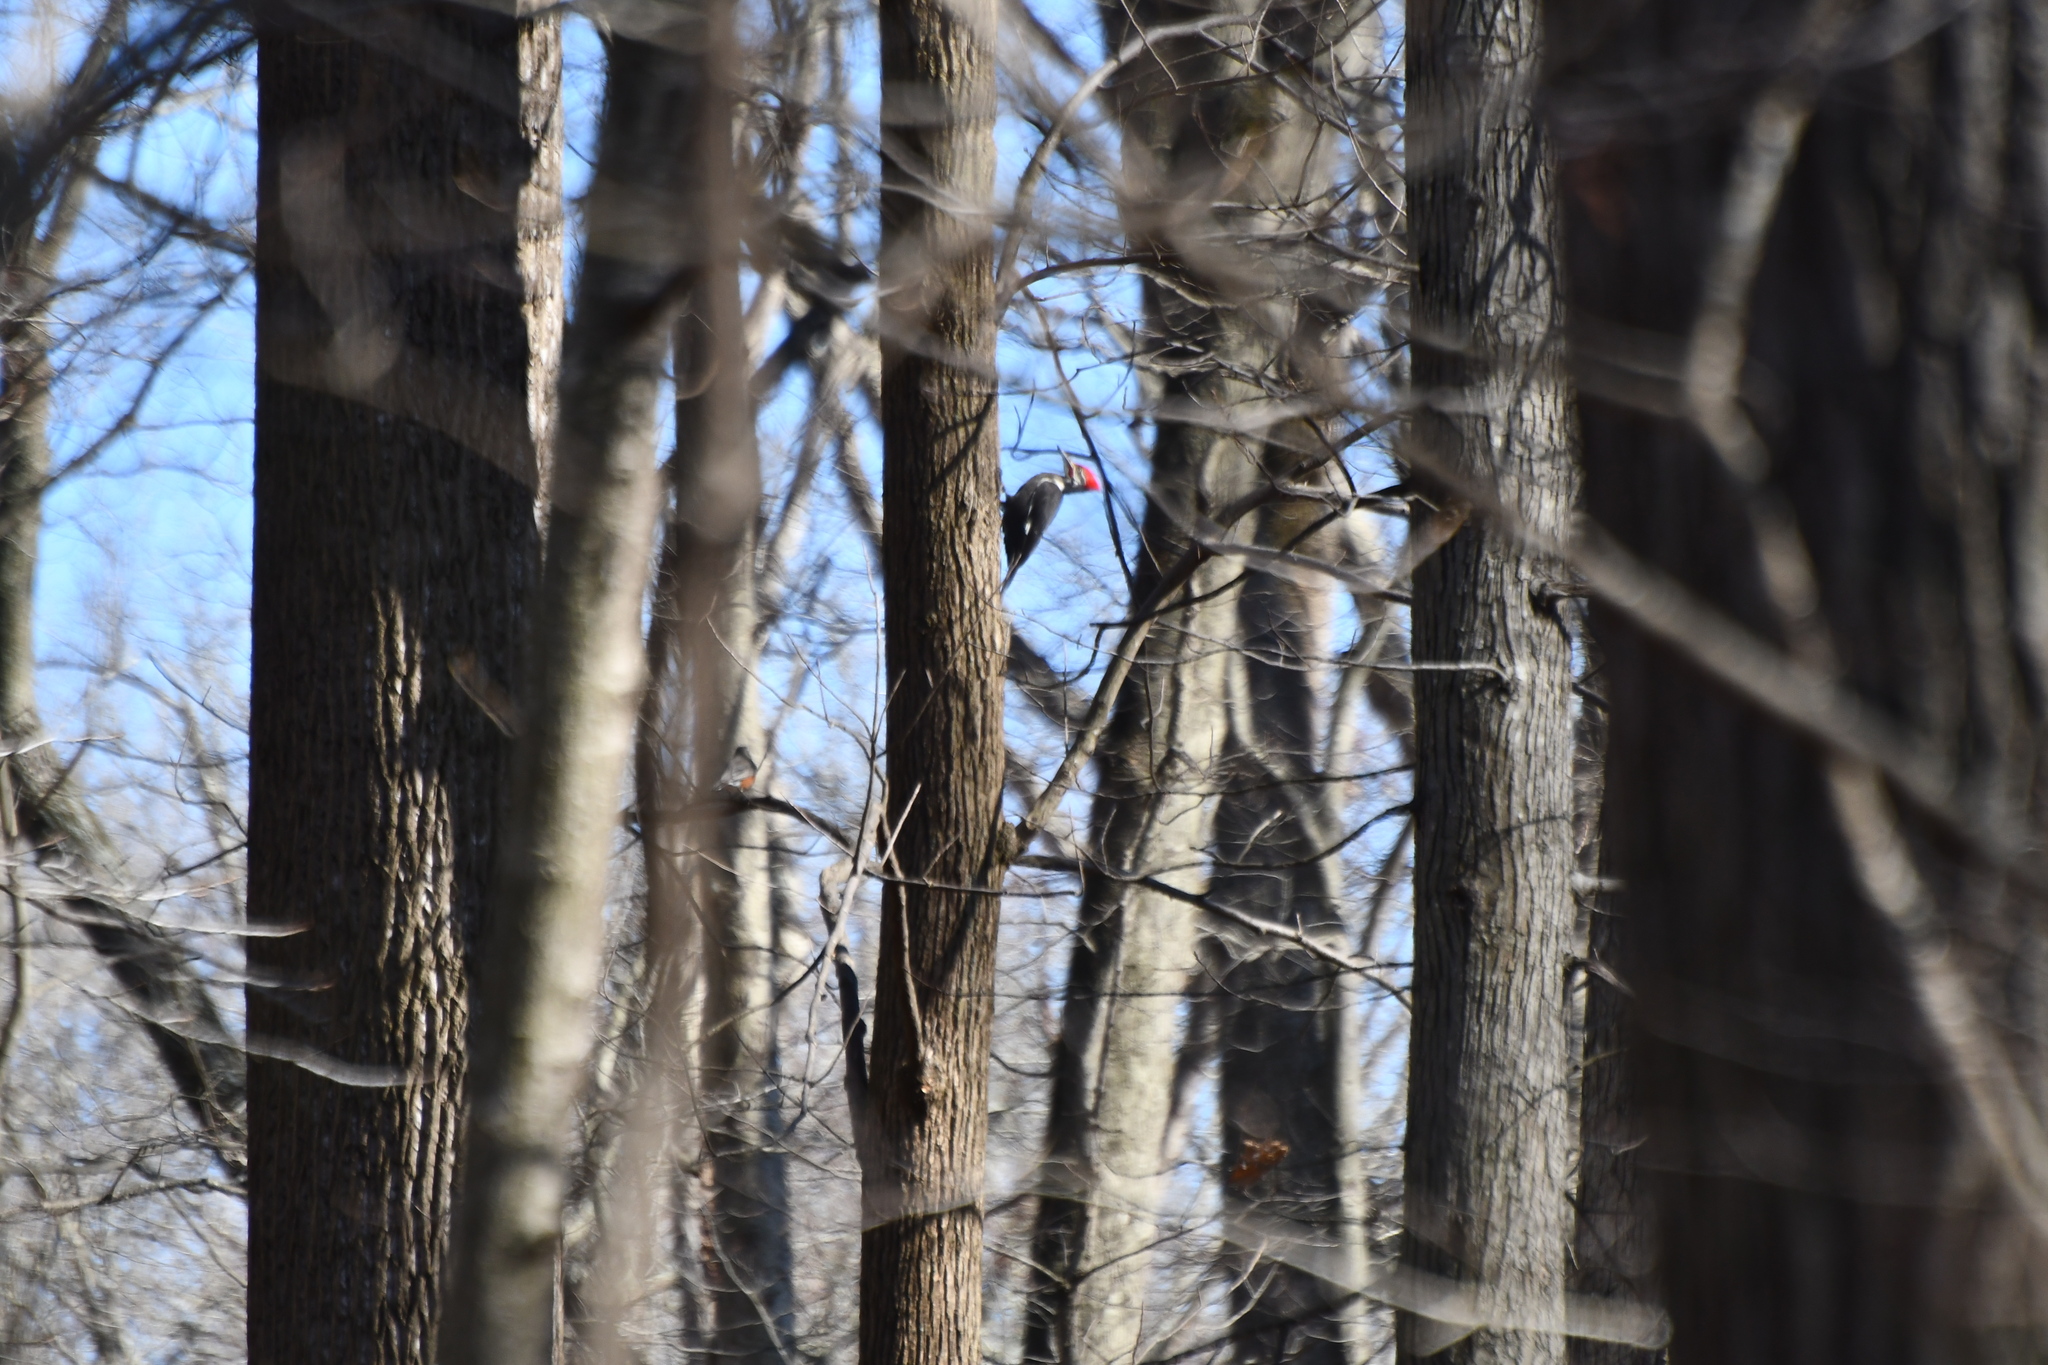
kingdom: Animalia
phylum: Chordata
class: Aves
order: Piciformes
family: Picidae
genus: Dryocopus
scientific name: Dryocopus pileatus
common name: Pileated woodpecker
